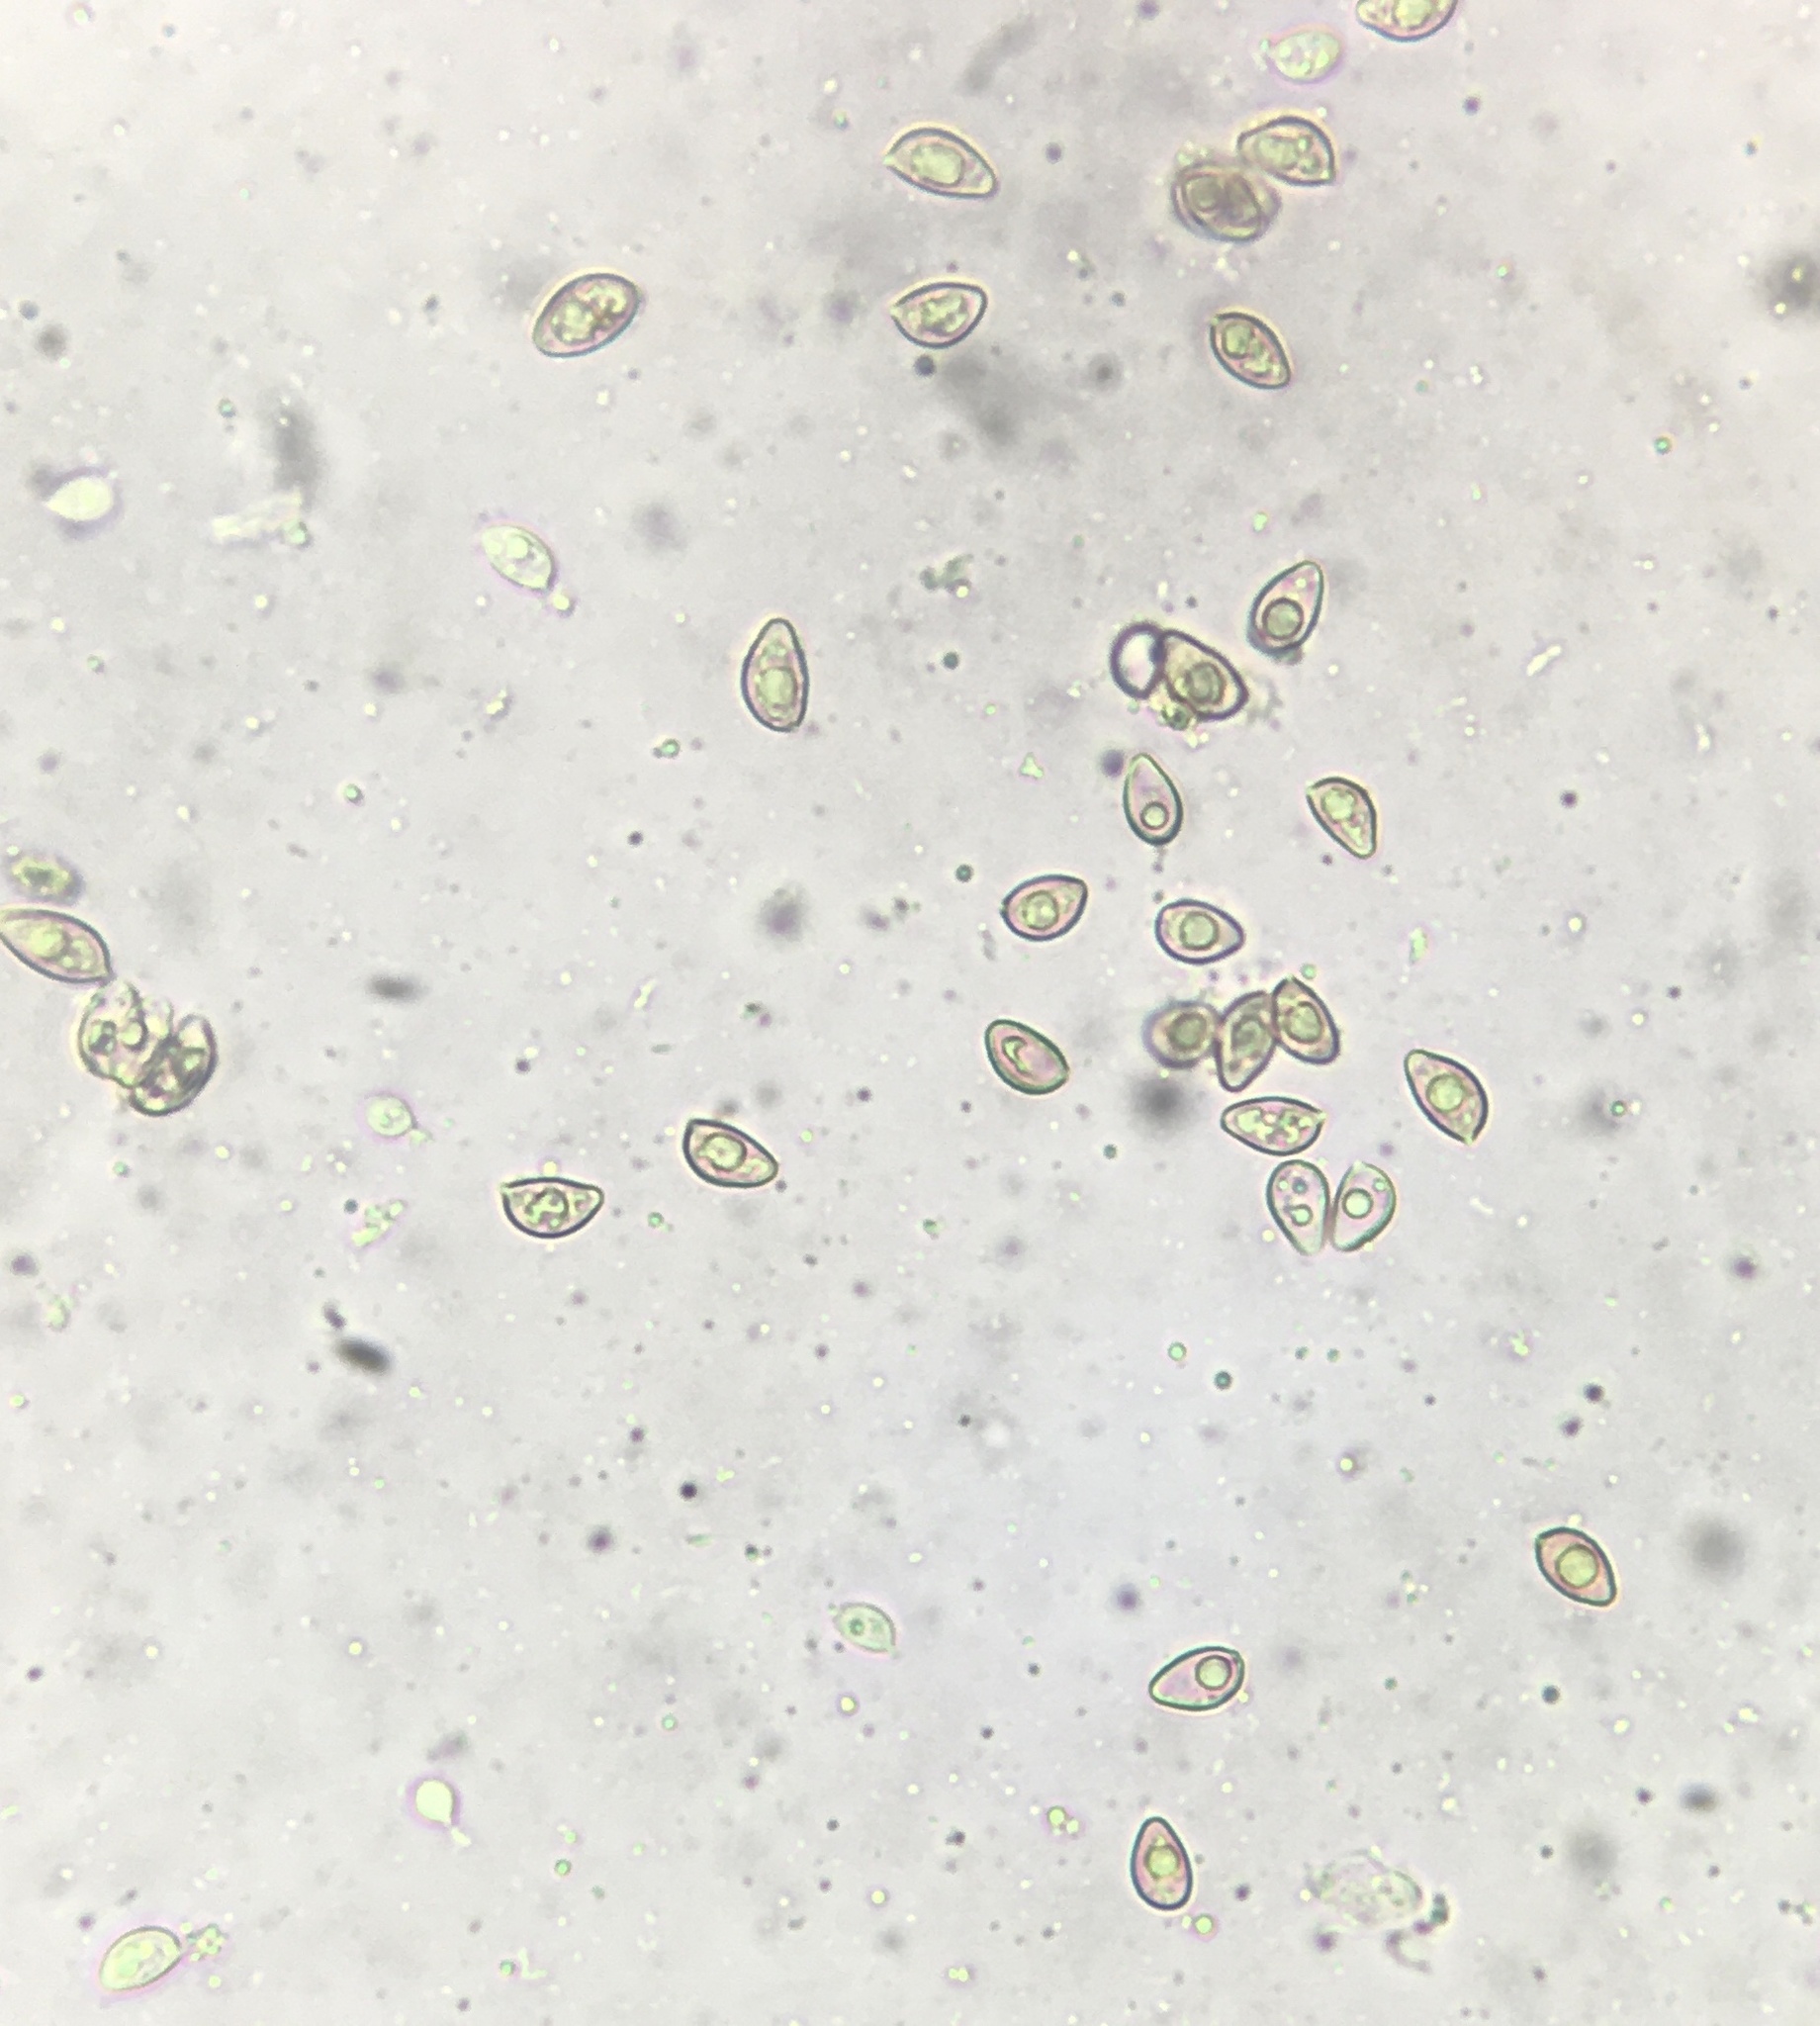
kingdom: Fungi
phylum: Basidiomycota
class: Agaricomycetes
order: Agaricales
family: Hymenogastraceae
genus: Hebeloma
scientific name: Hebeloma australe
